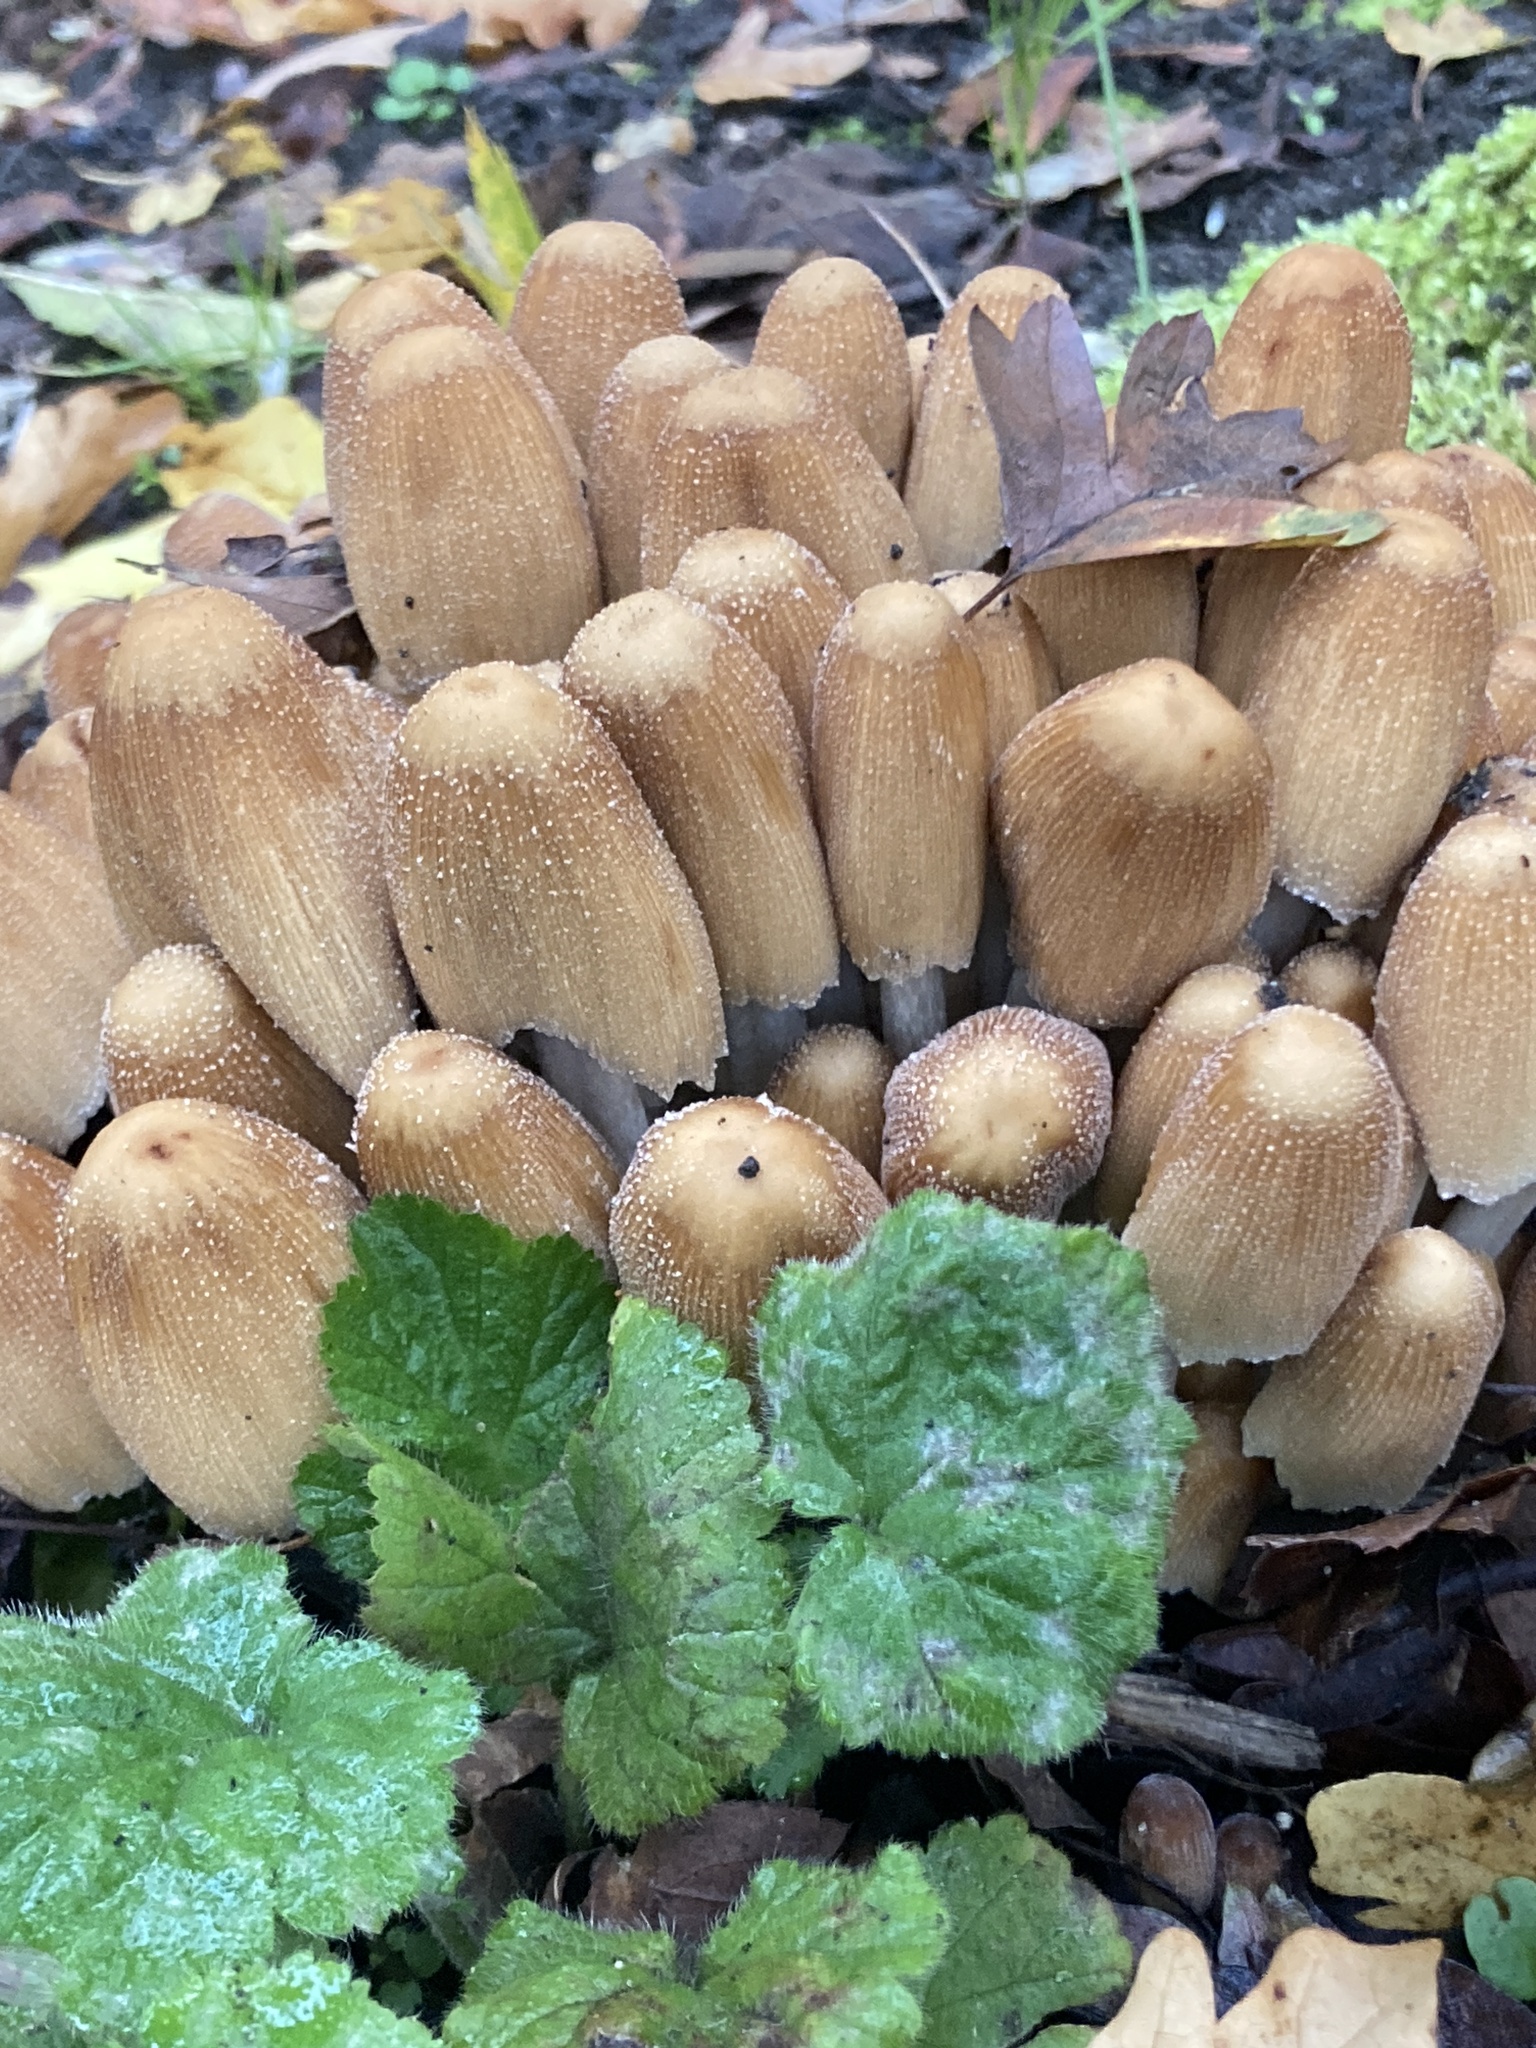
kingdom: Fungi
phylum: Basidiomycota
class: Agaricomycetes
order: Agaricales
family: Psathyrellaceae
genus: Coprinellus
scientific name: Coprinellus micaceus
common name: Glistening ink-cap
